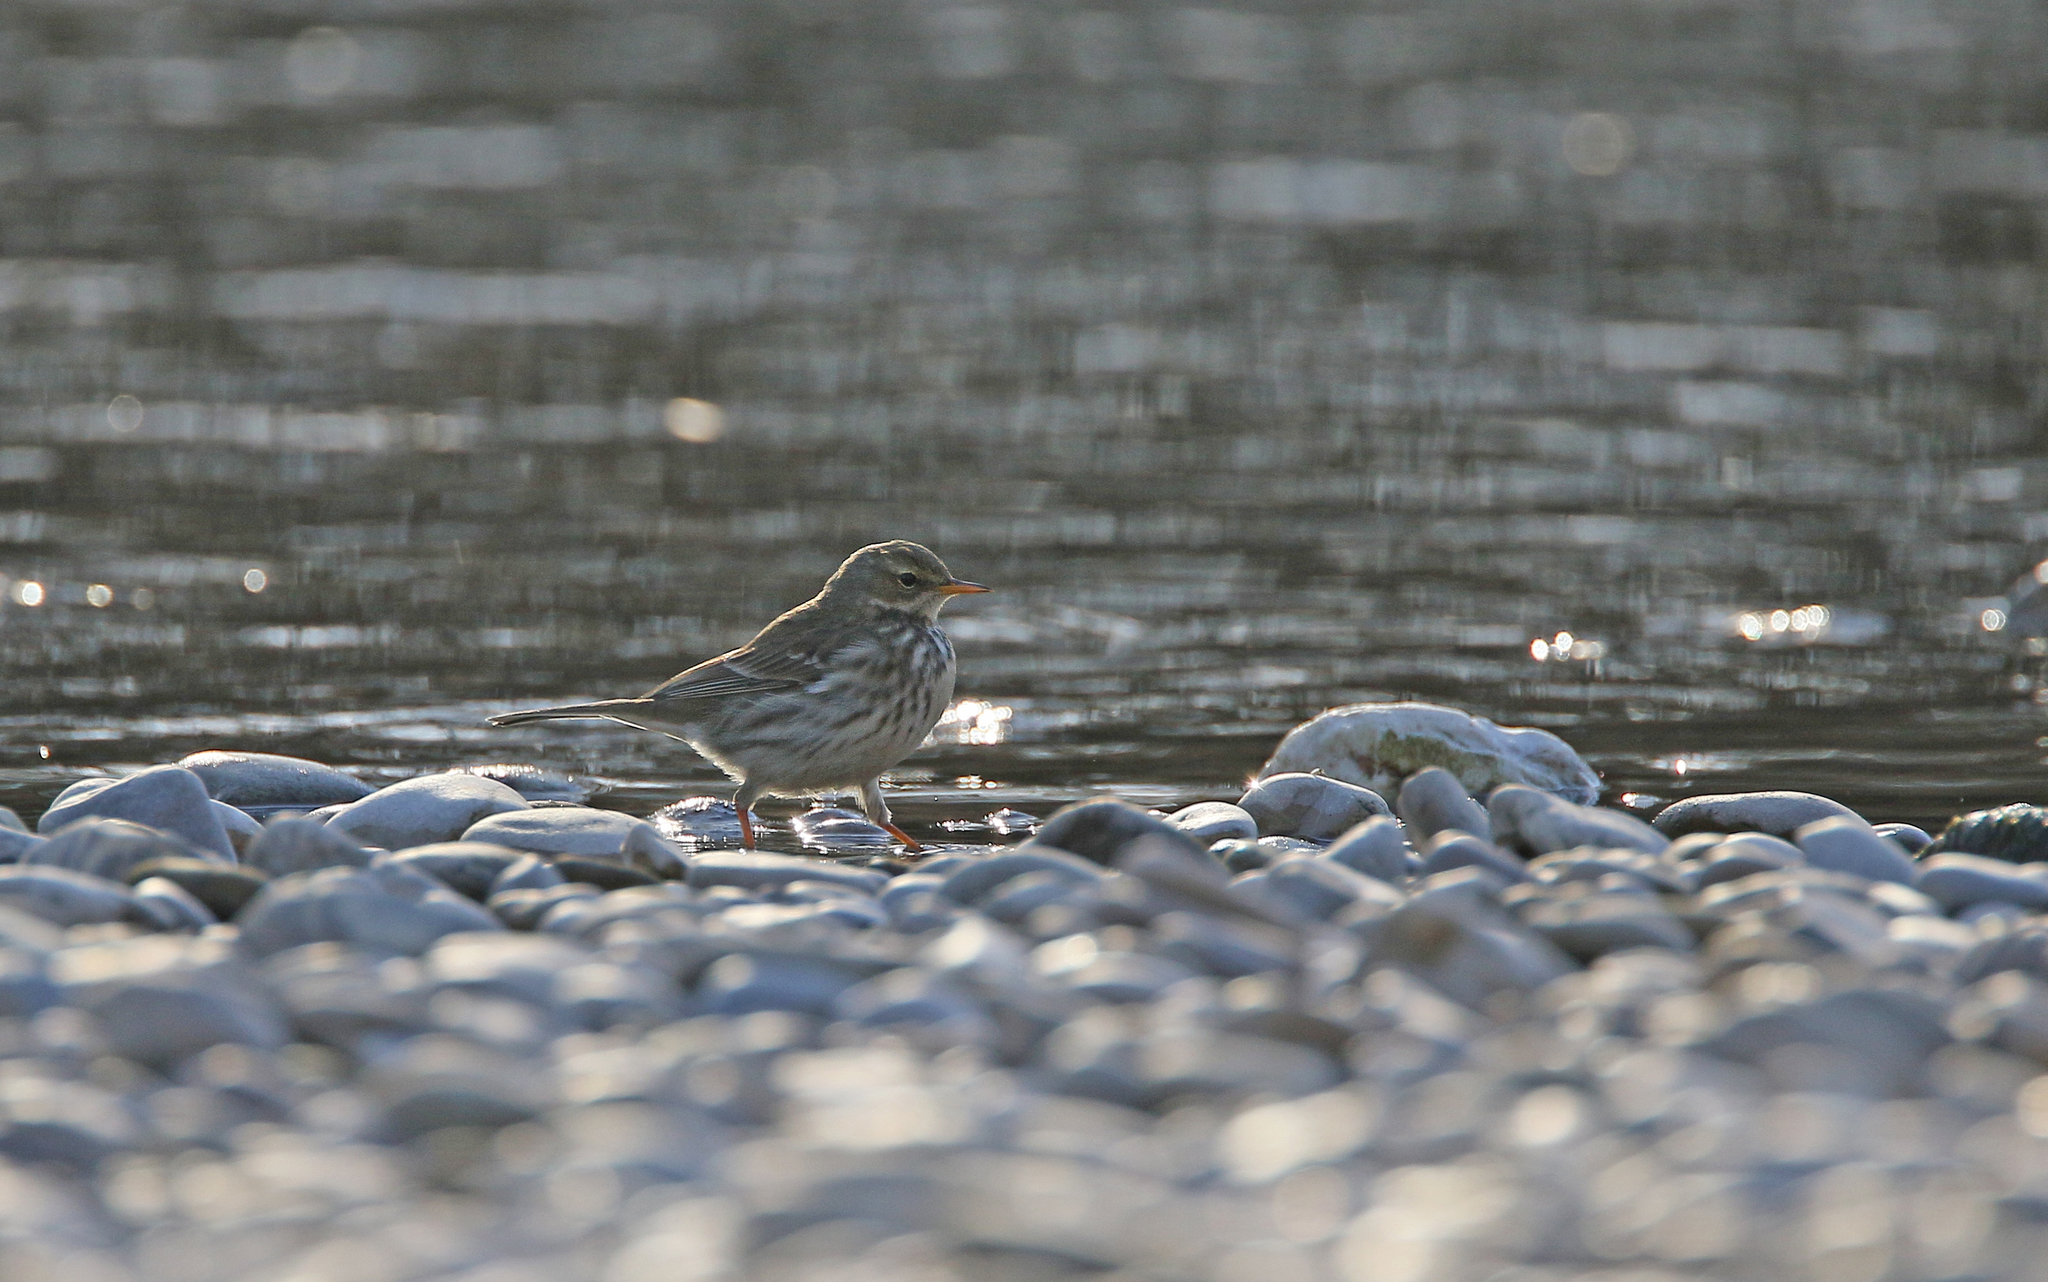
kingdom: Animalia
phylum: Chordata
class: Aves
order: Passeriformes
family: Motacillidae
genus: Anthus
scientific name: Anthus spinoletta
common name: Water pipit
